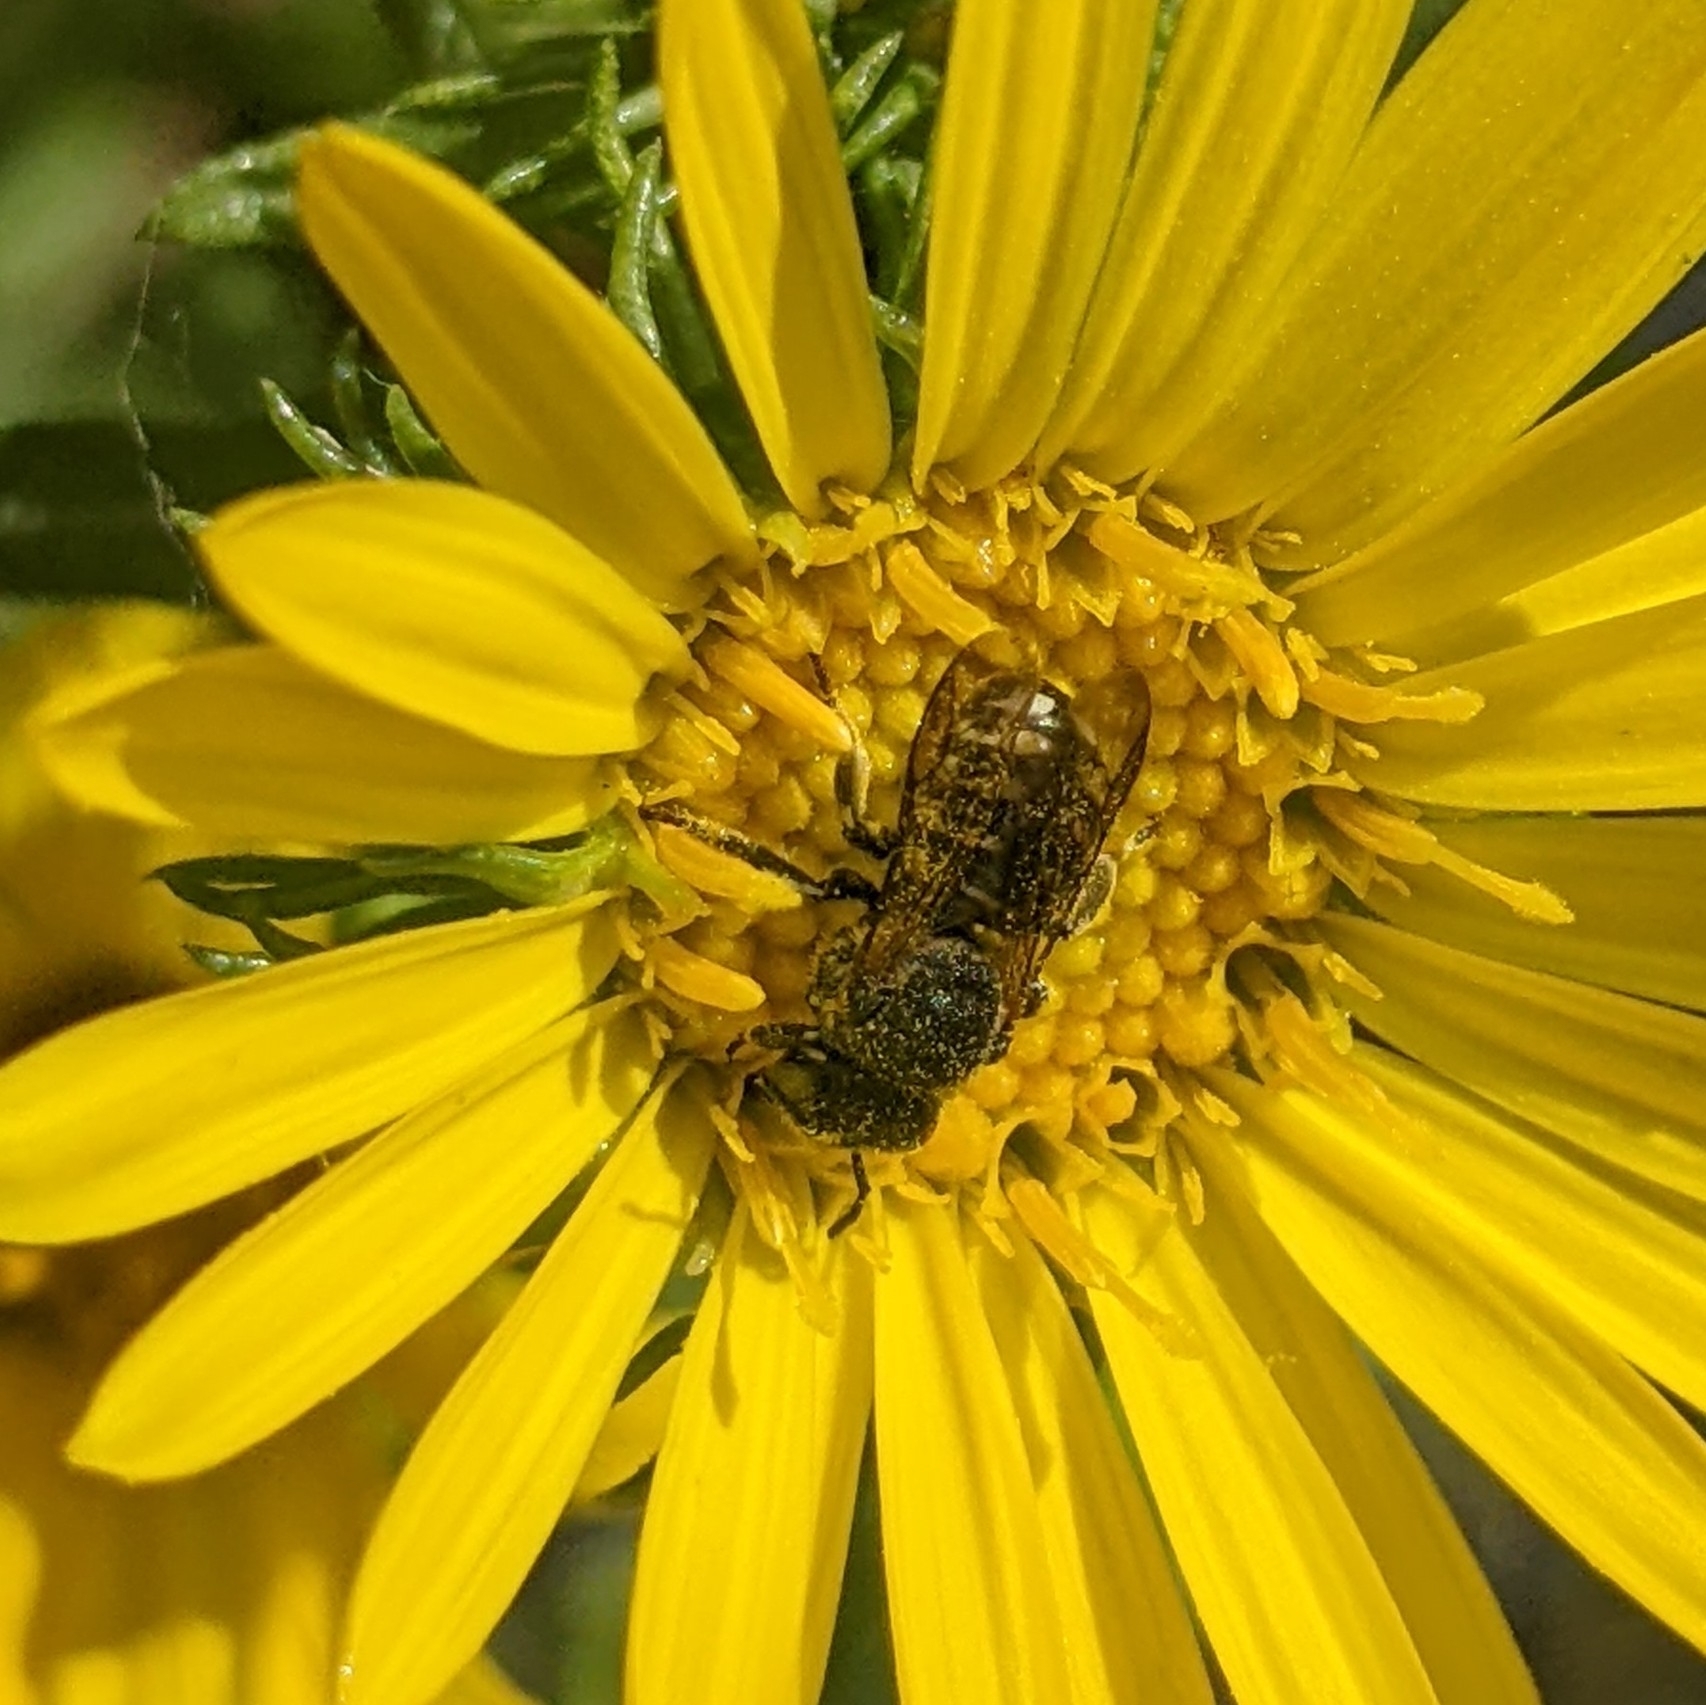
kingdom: Animalia
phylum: Arthropoda
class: Insecta
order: Hymenoptera
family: Megachilidae
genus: Dianthidium
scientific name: Dianthidium subparvum
